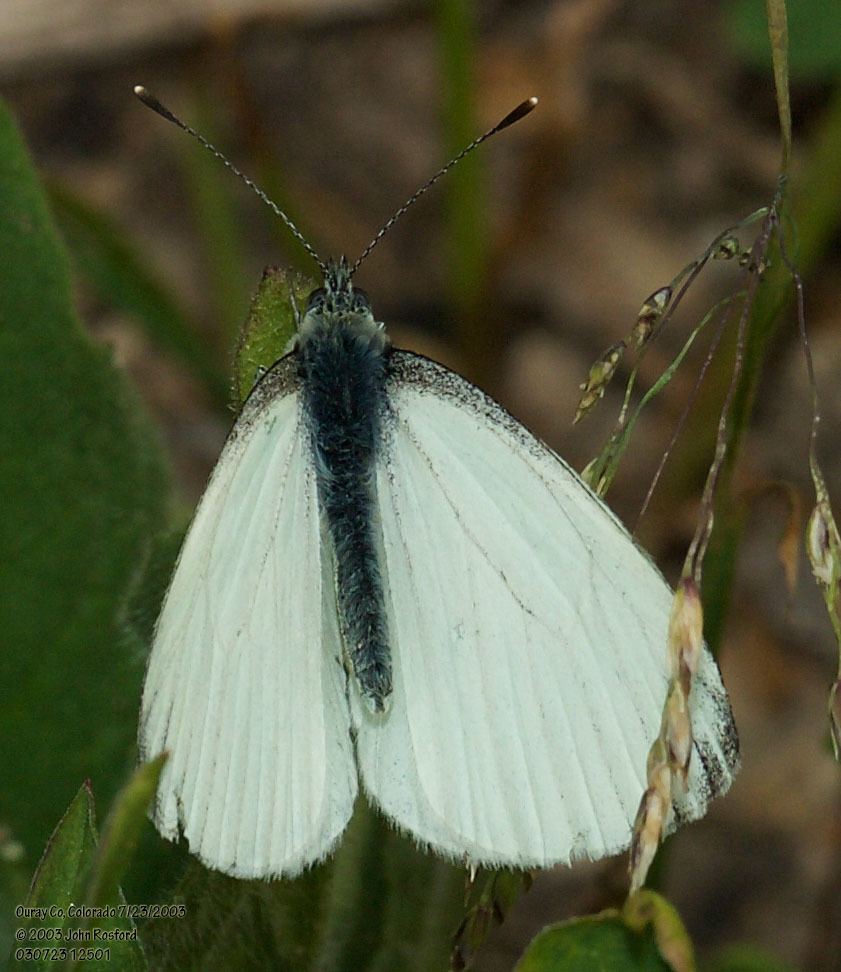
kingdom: Animalia
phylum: Arthropoda
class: Insecta
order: Lepidoptera
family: Pieridae
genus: Pieris
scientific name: Pieris marginalis
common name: Margined white
